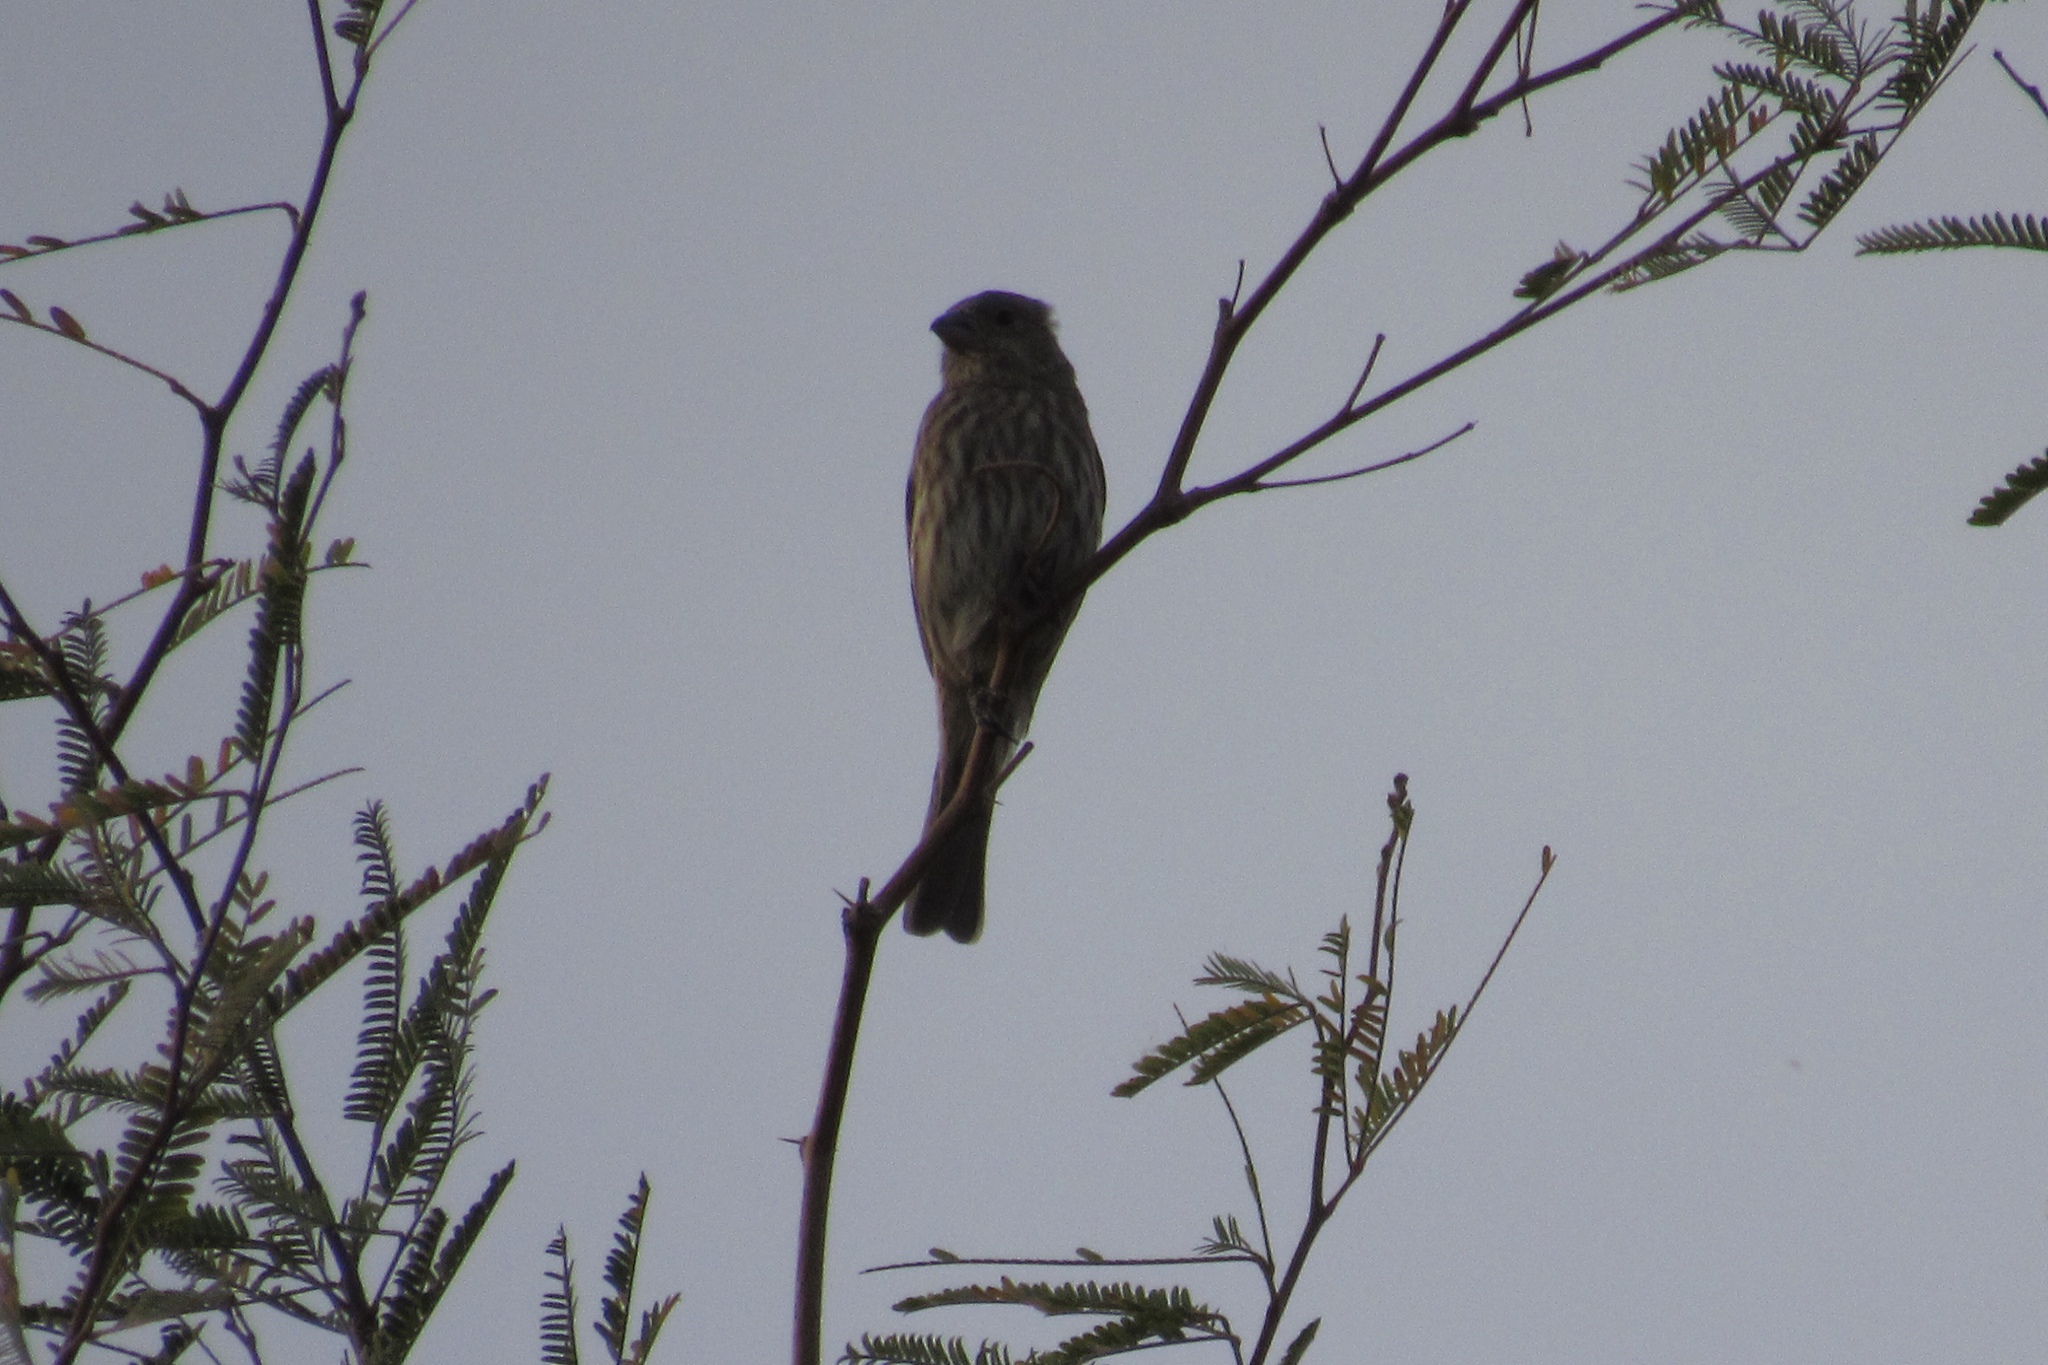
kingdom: Animalia
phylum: Chordata
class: Aves
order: Passeriformes
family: Fringillidae
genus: Haemorhous
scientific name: Haemorhous mexicanus
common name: House finch
